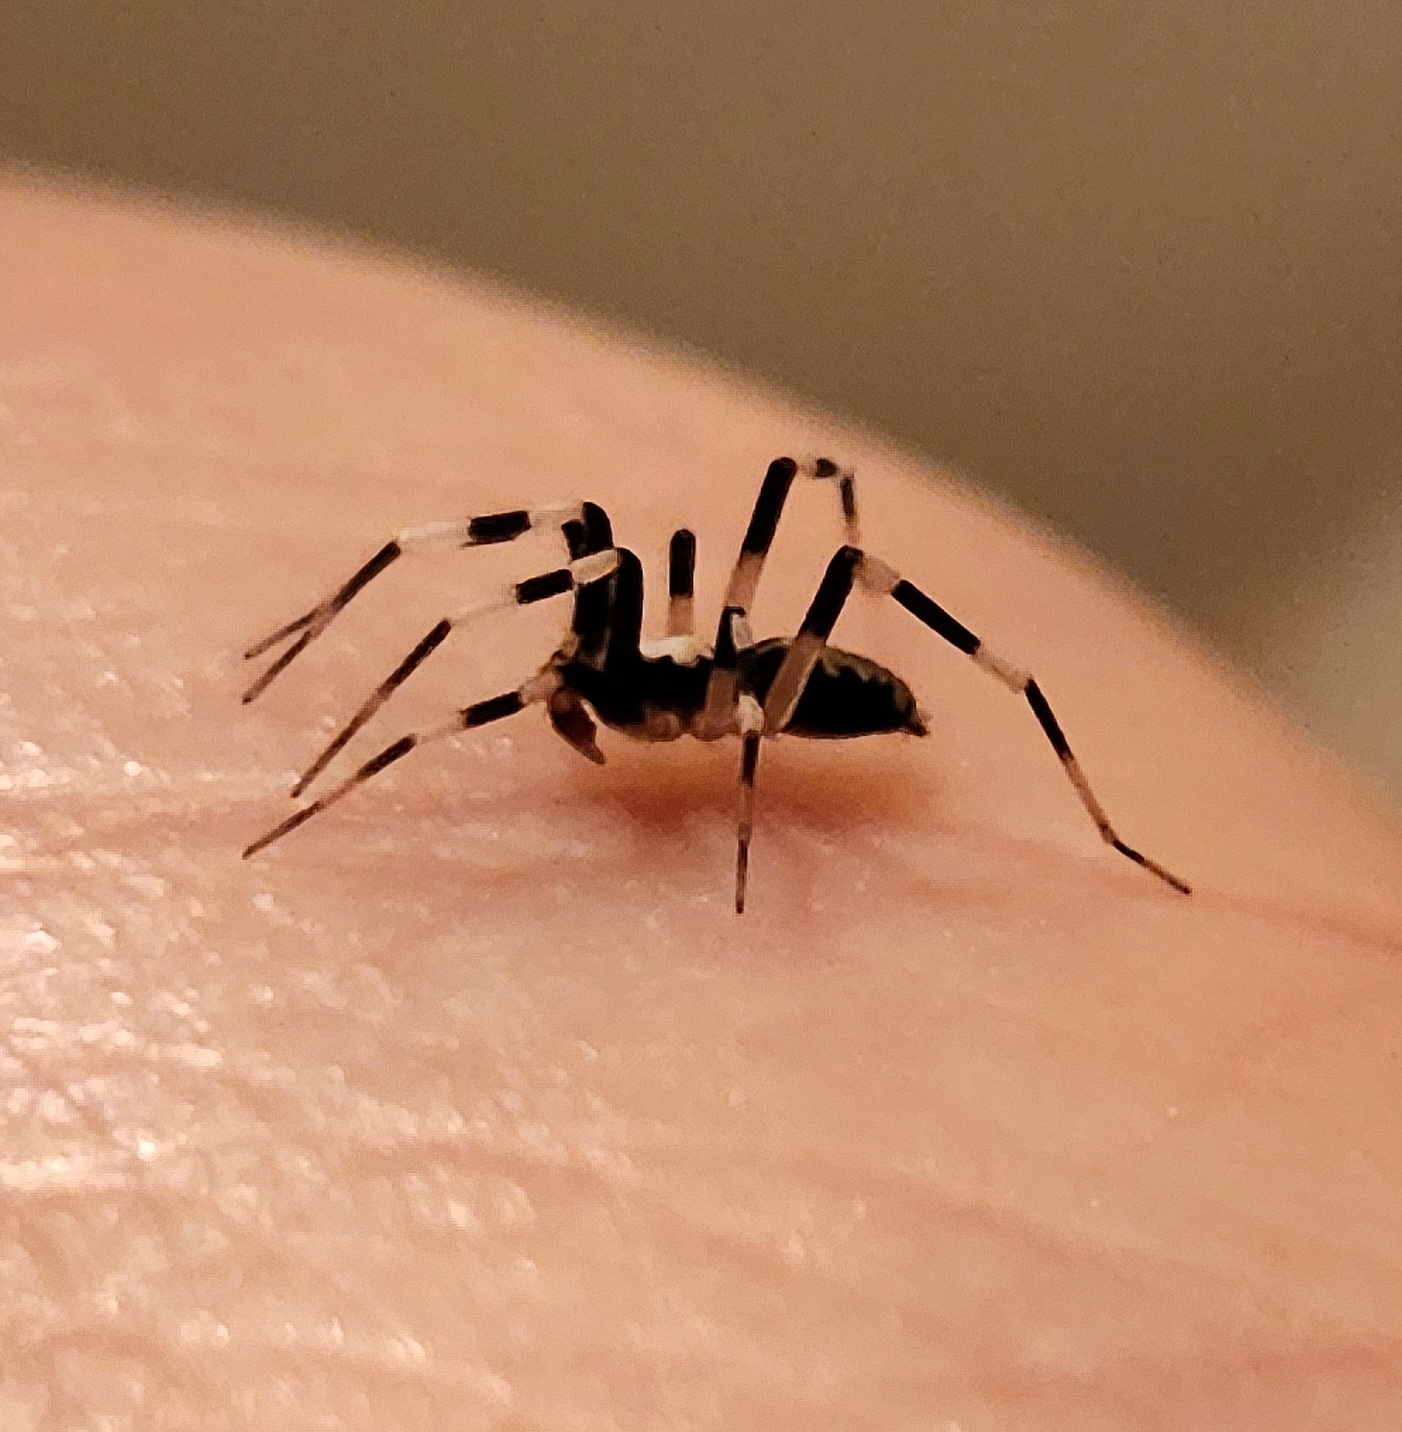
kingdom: Animalia
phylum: Arthropoda
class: Arachnida
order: Araneae
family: Gnaphosidae
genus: Ceryerda
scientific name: Ceryerda cursitans
